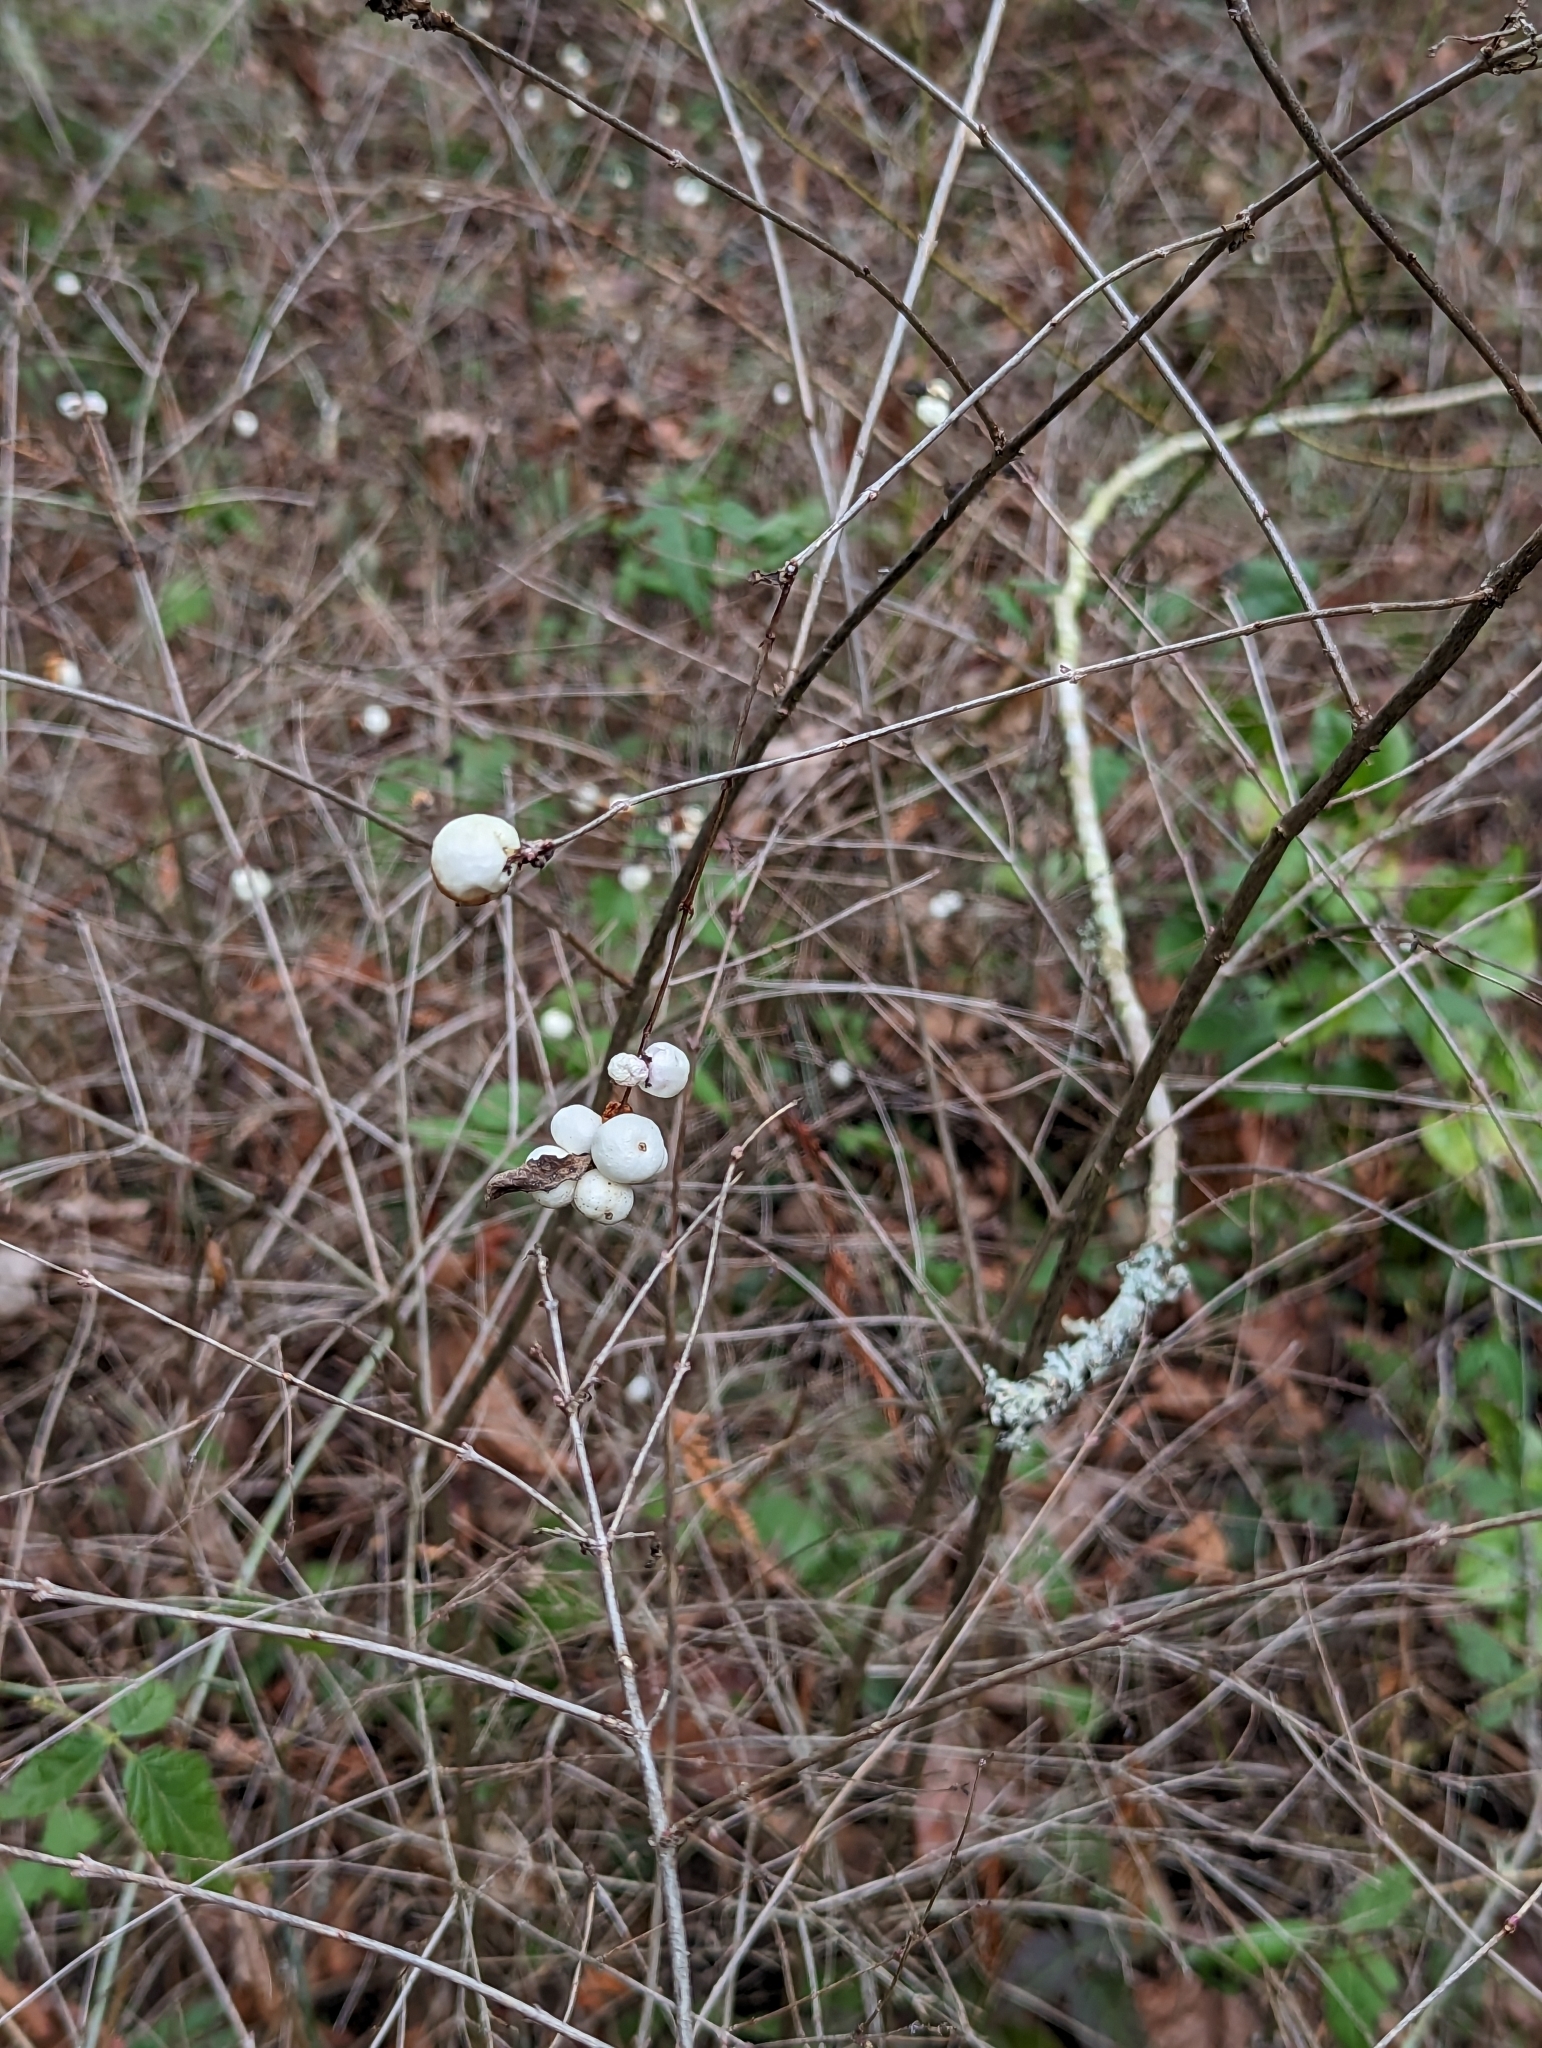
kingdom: Plantae
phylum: Tracheophyta
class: Magnoliopsida
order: Dipsacales
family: Caprifoliaceae
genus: Symphoricarpos
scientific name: Symphoricarpos albus
